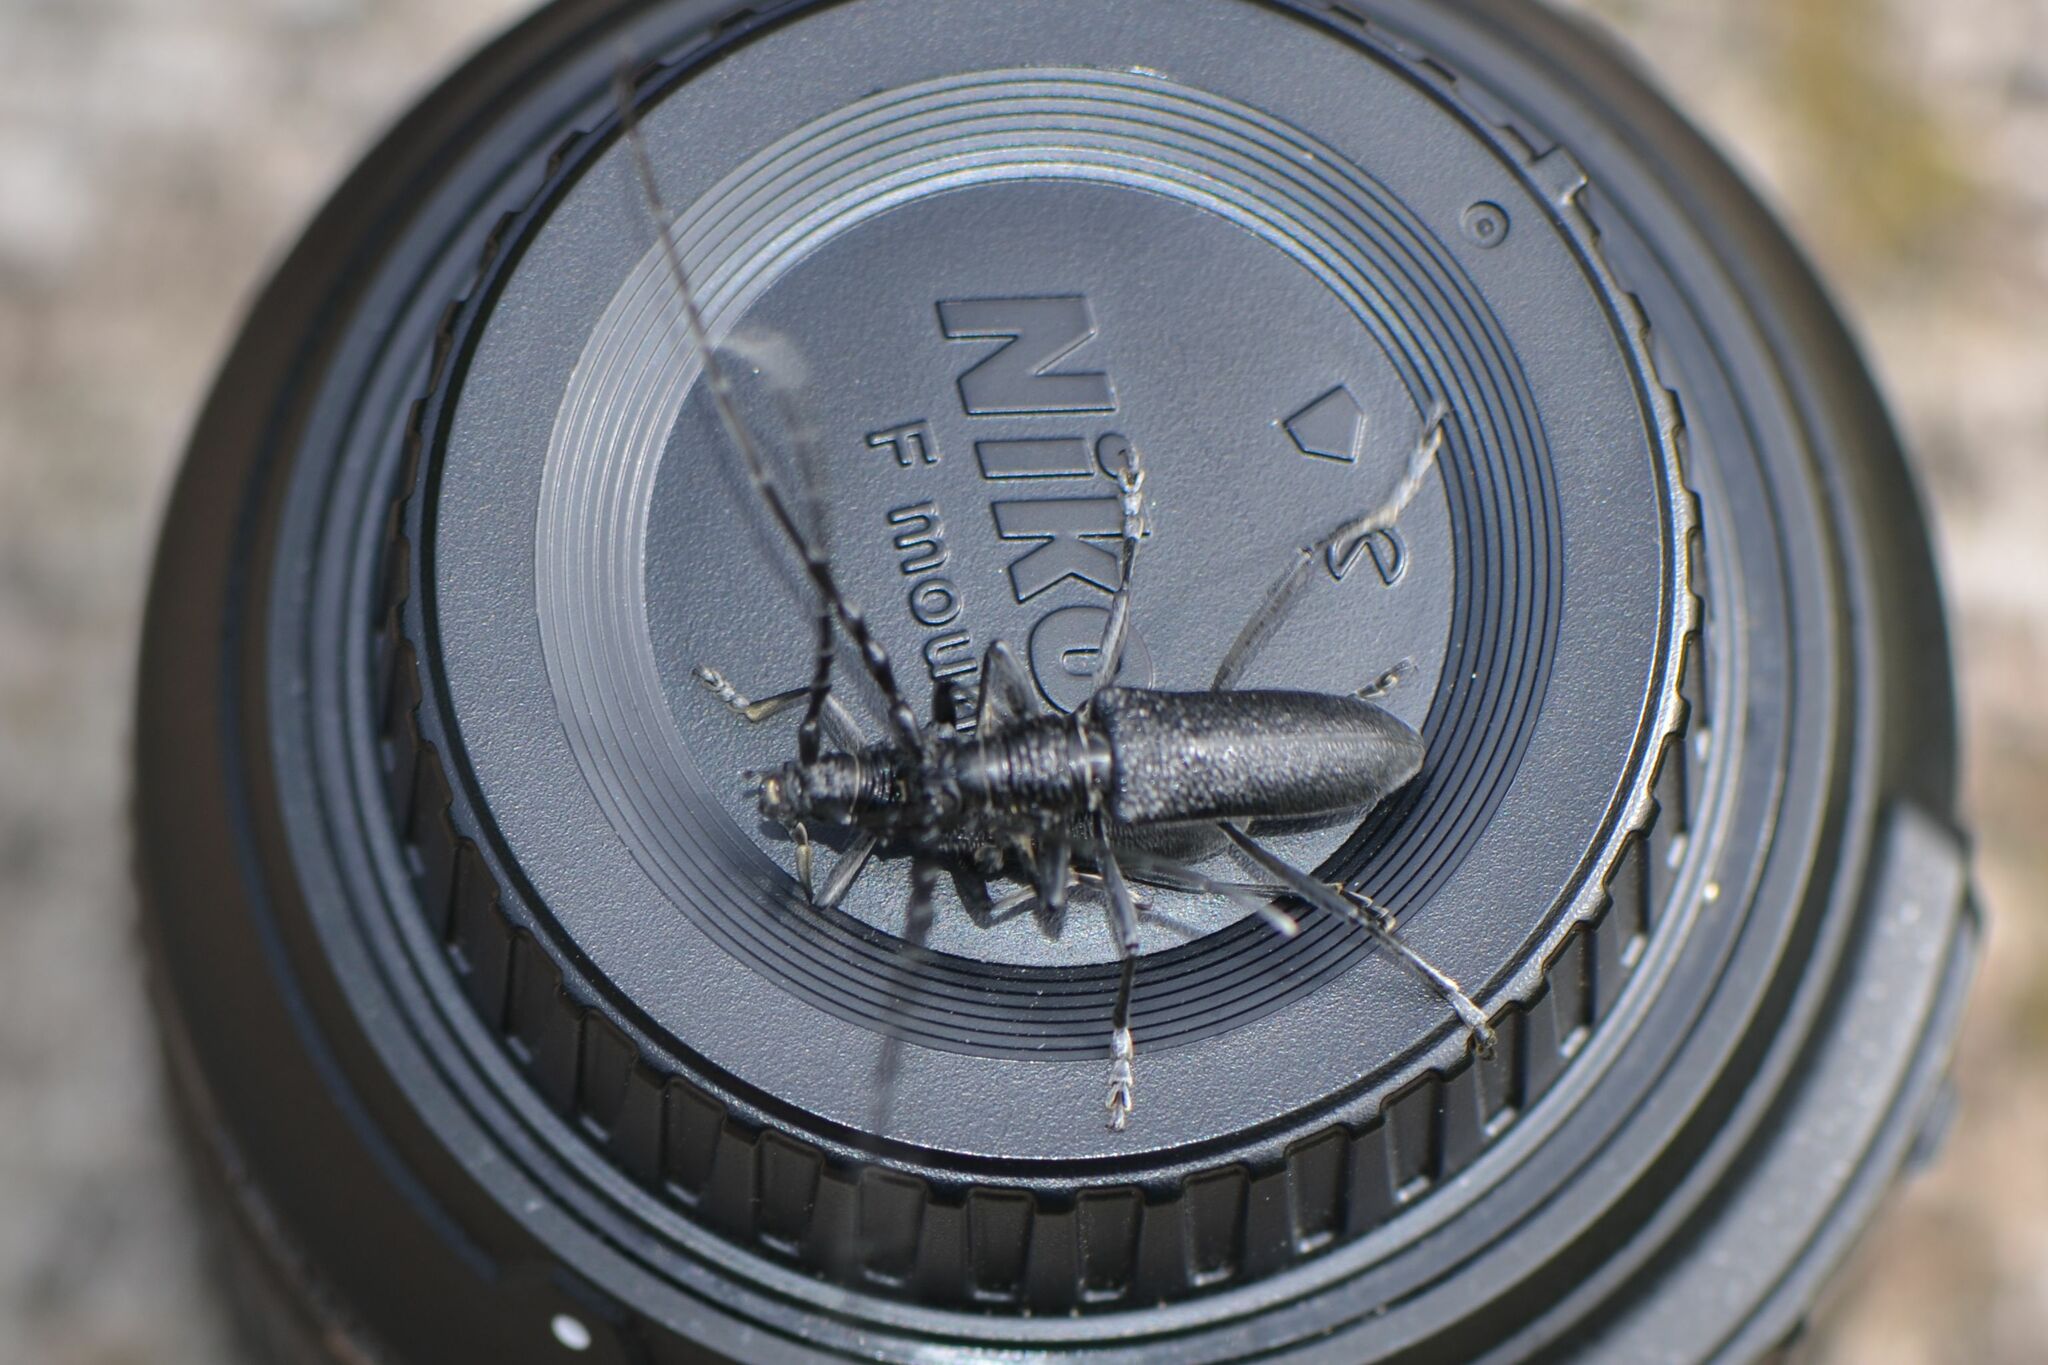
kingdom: Animalia
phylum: Arthropoda
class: Insecta
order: Coleoptera
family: Cerambycidae
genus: Cerambyx
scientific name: Cerambyx scopolii
